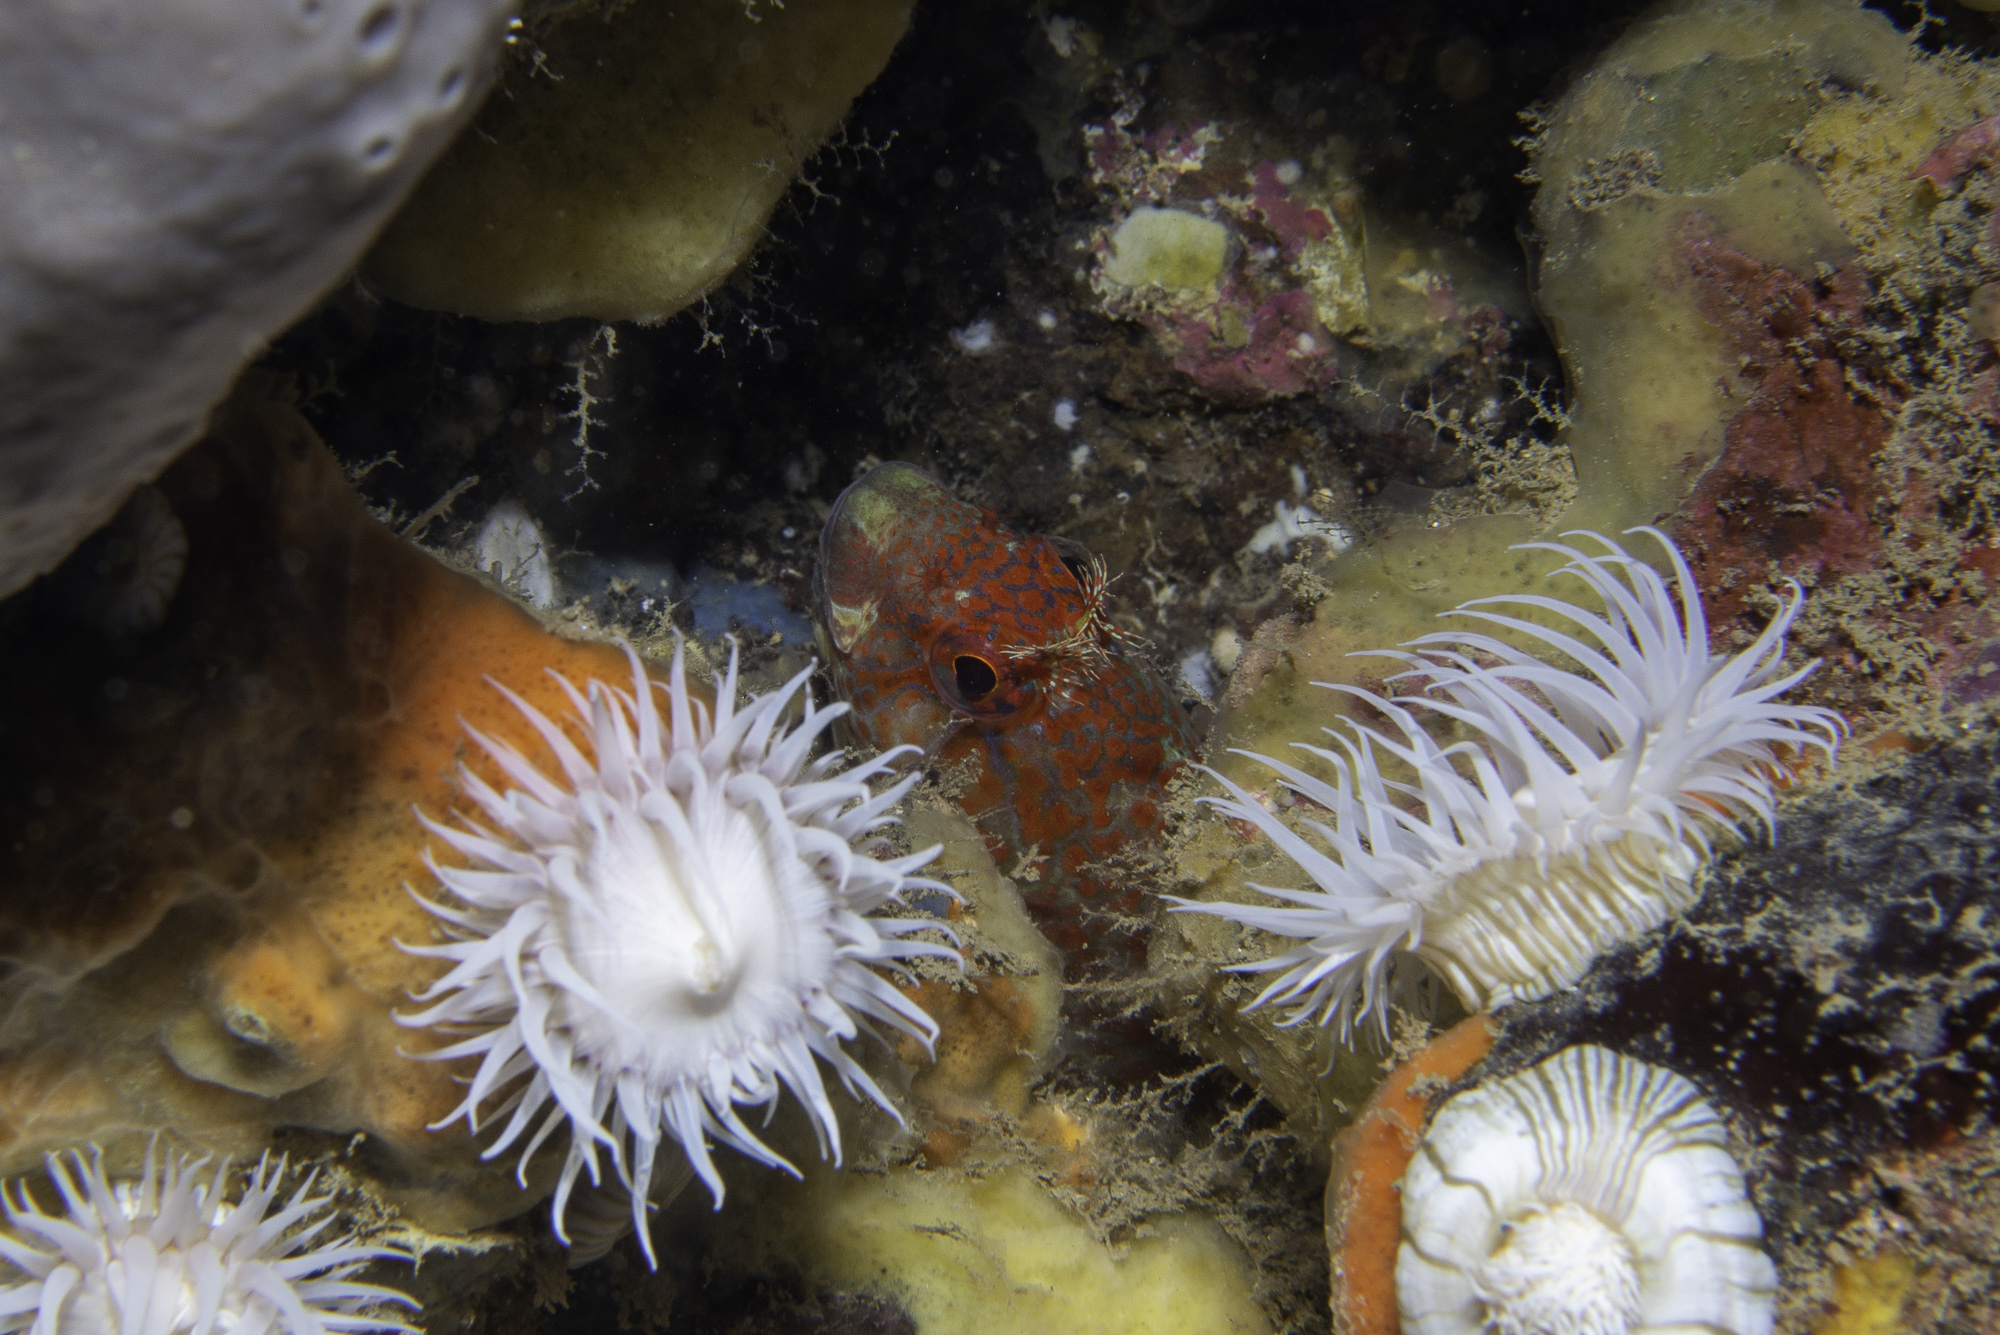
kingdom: Animalia
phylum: Chordata
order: Perciformes
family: Blenniidae
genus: Parablennius
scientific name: Parablennius ruber
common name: Portuguese blenny
